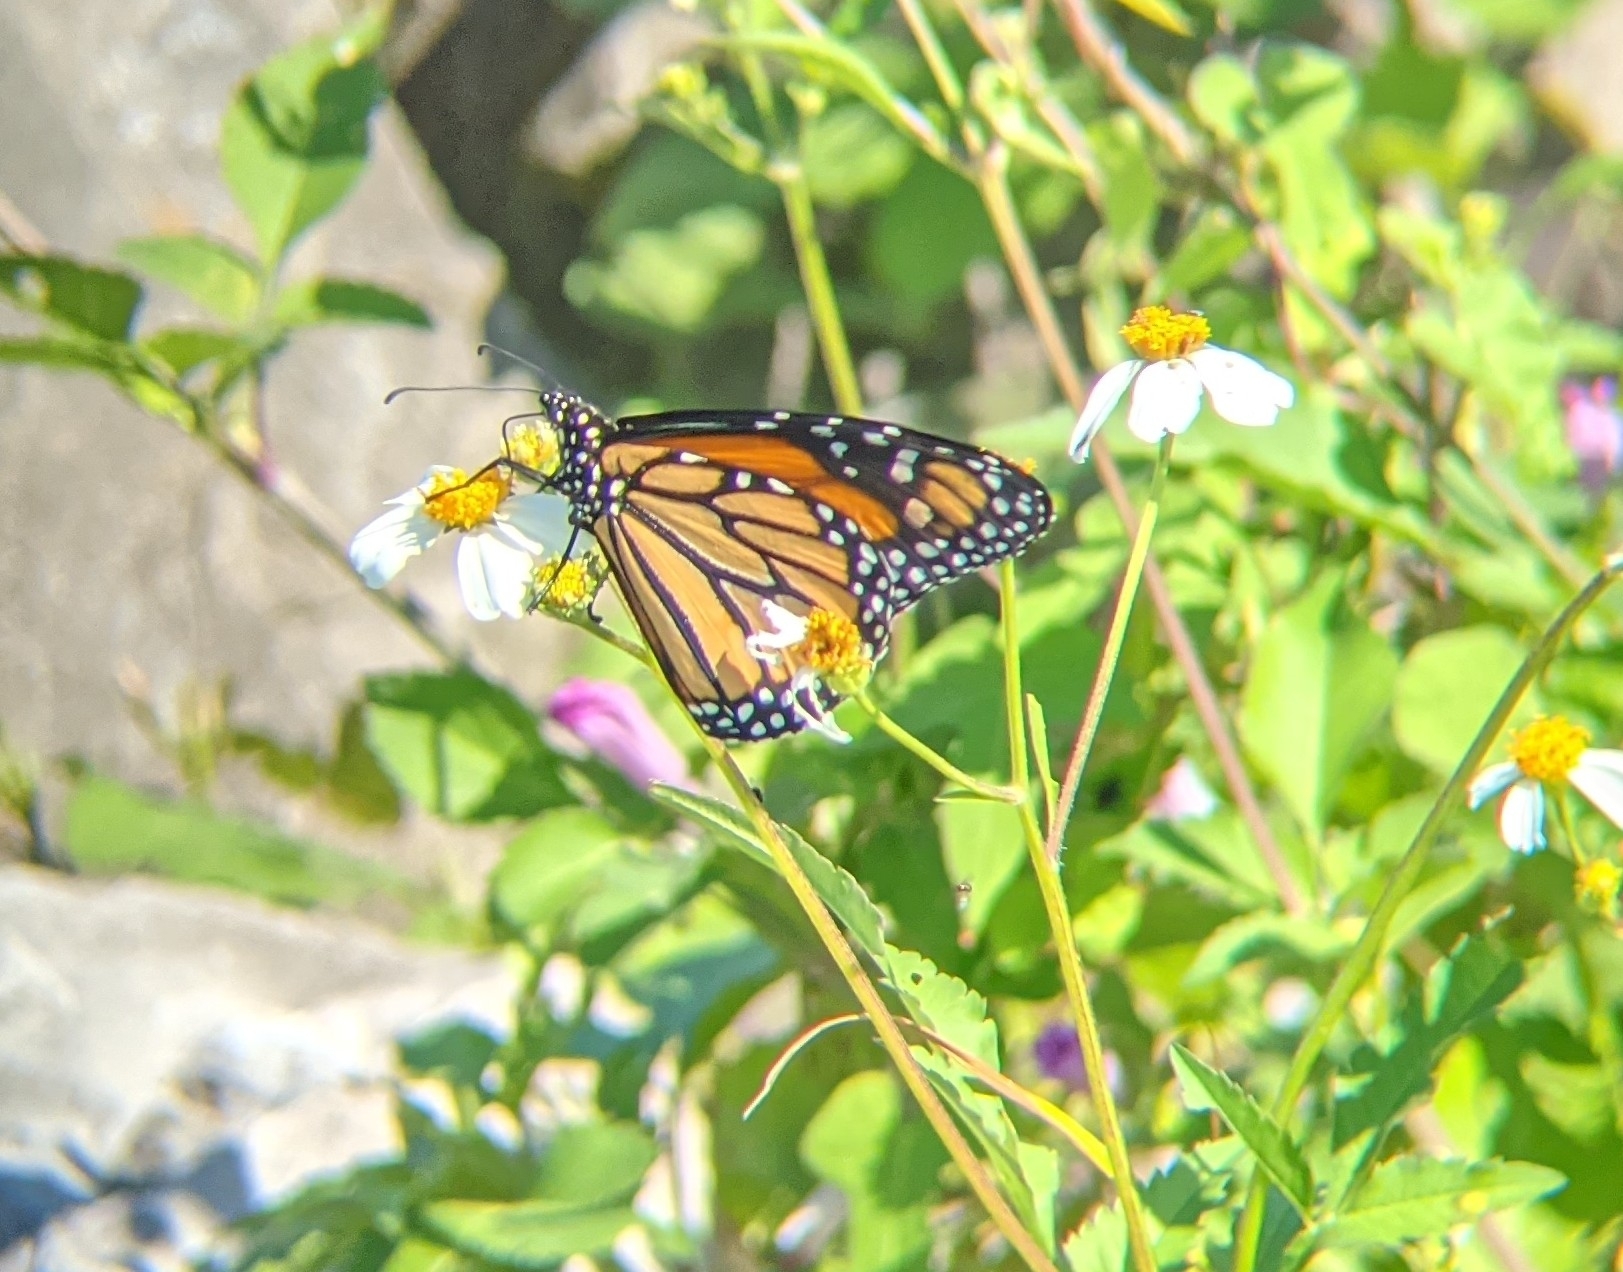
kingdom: Animalia
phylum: Arthropoda
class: Insecta
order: Lepidoptera
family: Nymphalidae
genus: Danaus
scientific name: Danaus plexippus
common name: Monarch
